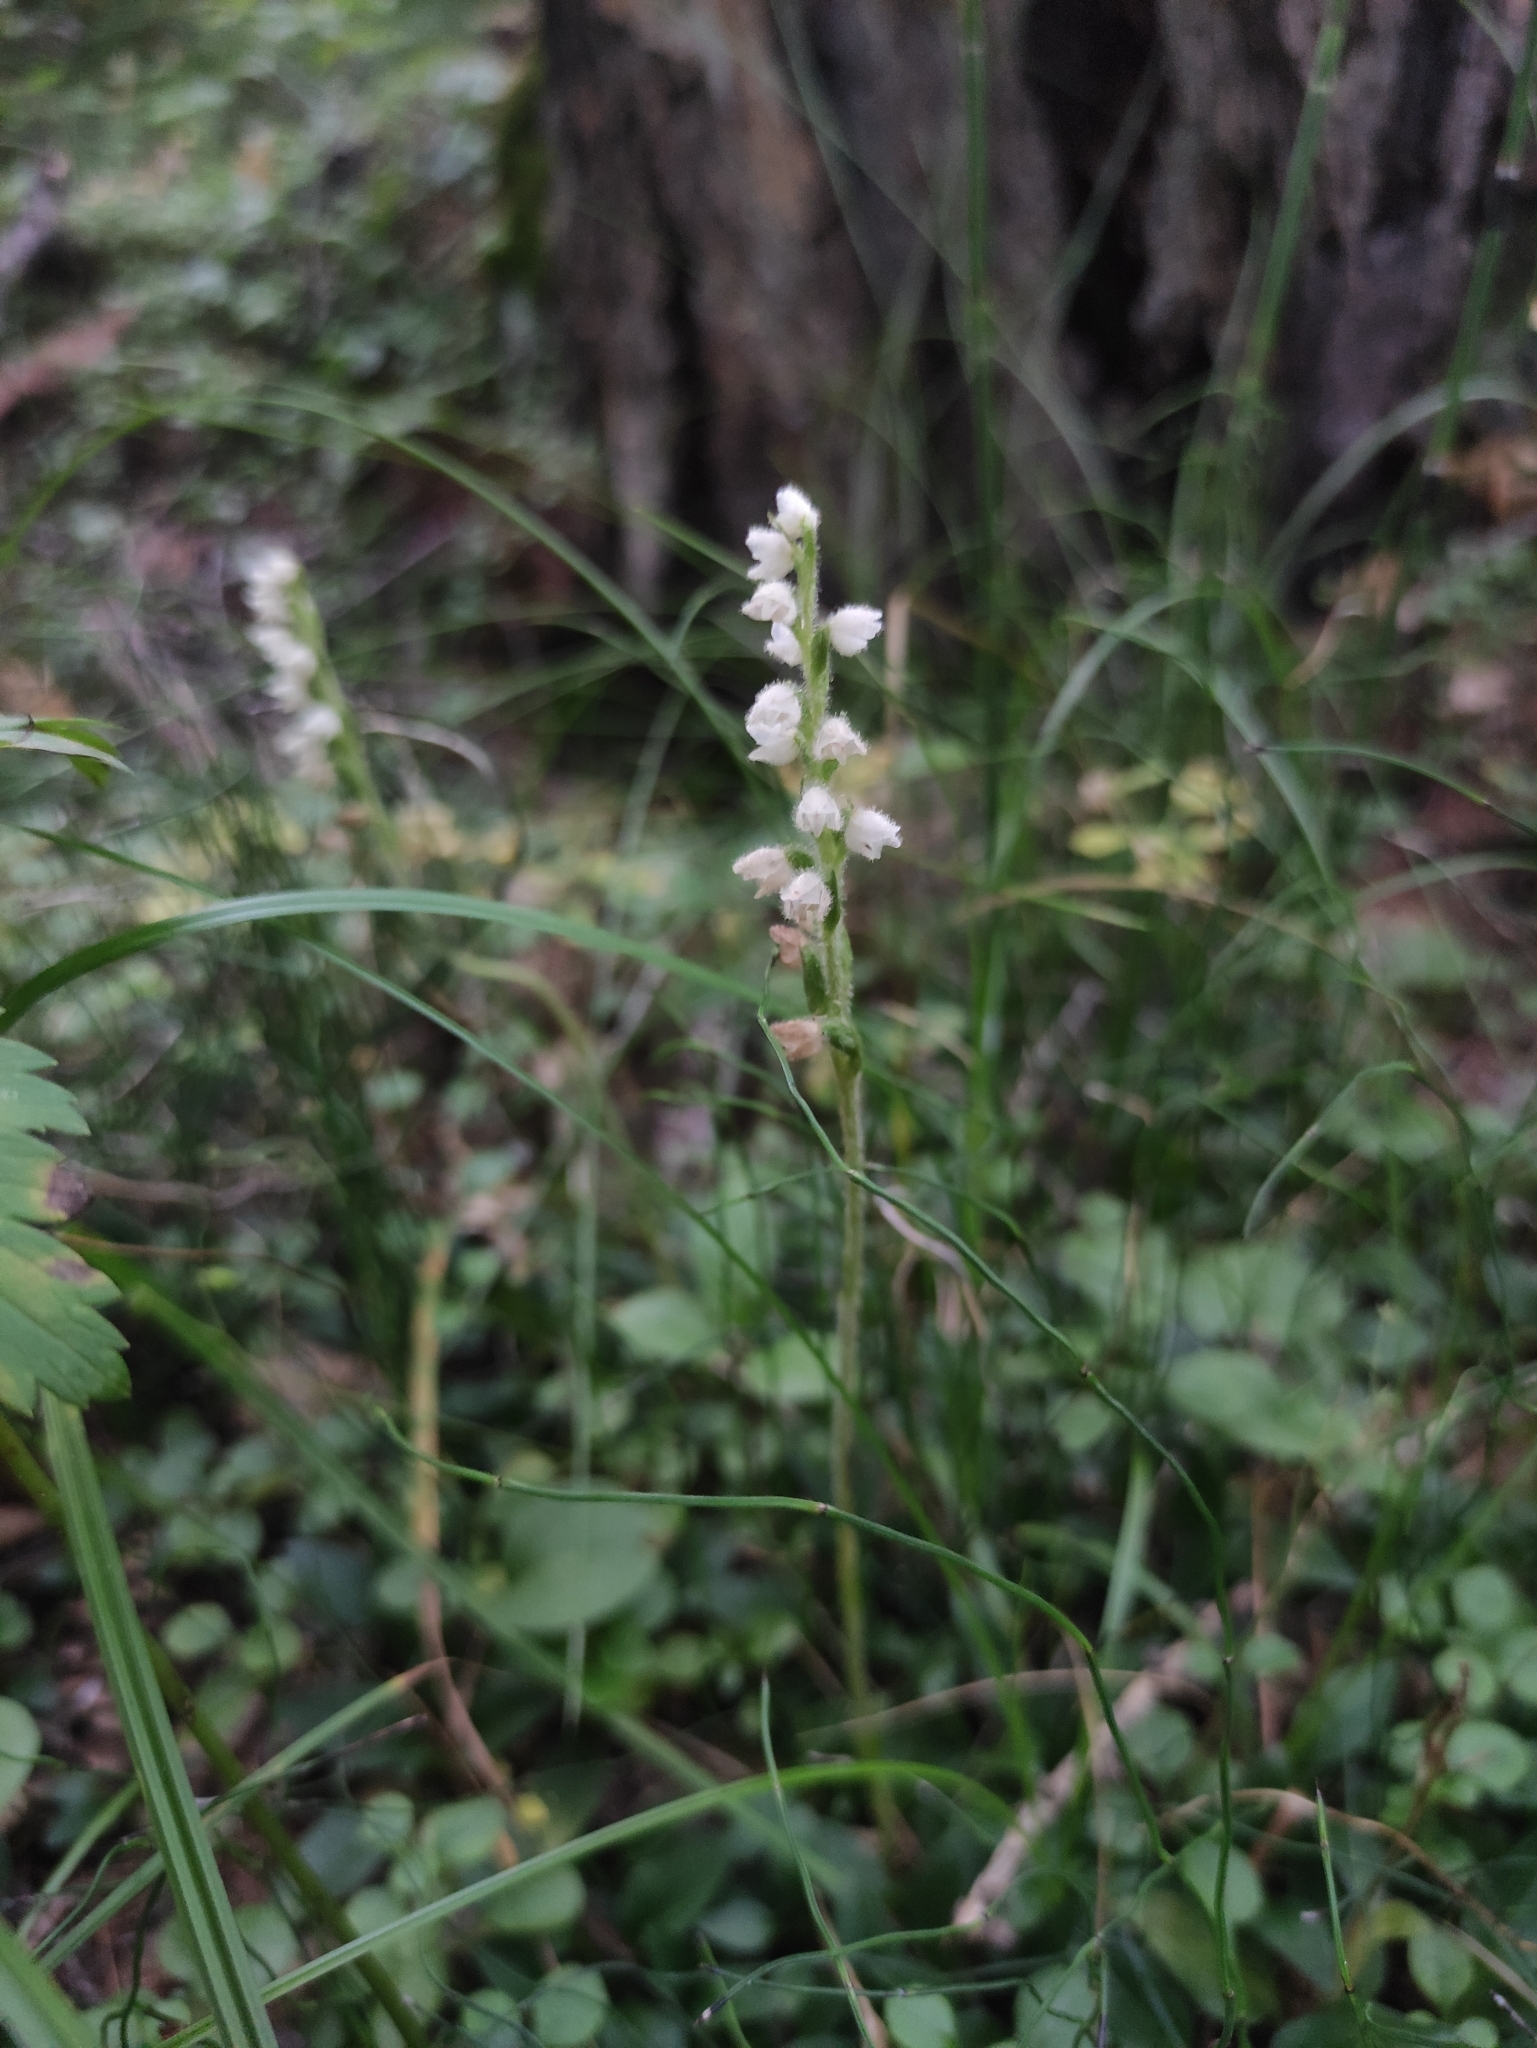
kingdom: Plantae
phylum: Tracheophyta
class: Liliopsida
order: Asparagales
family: Orchidaceae
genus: Goodyera
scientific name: Goodyera repens
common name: Creeping lady's-tresses
